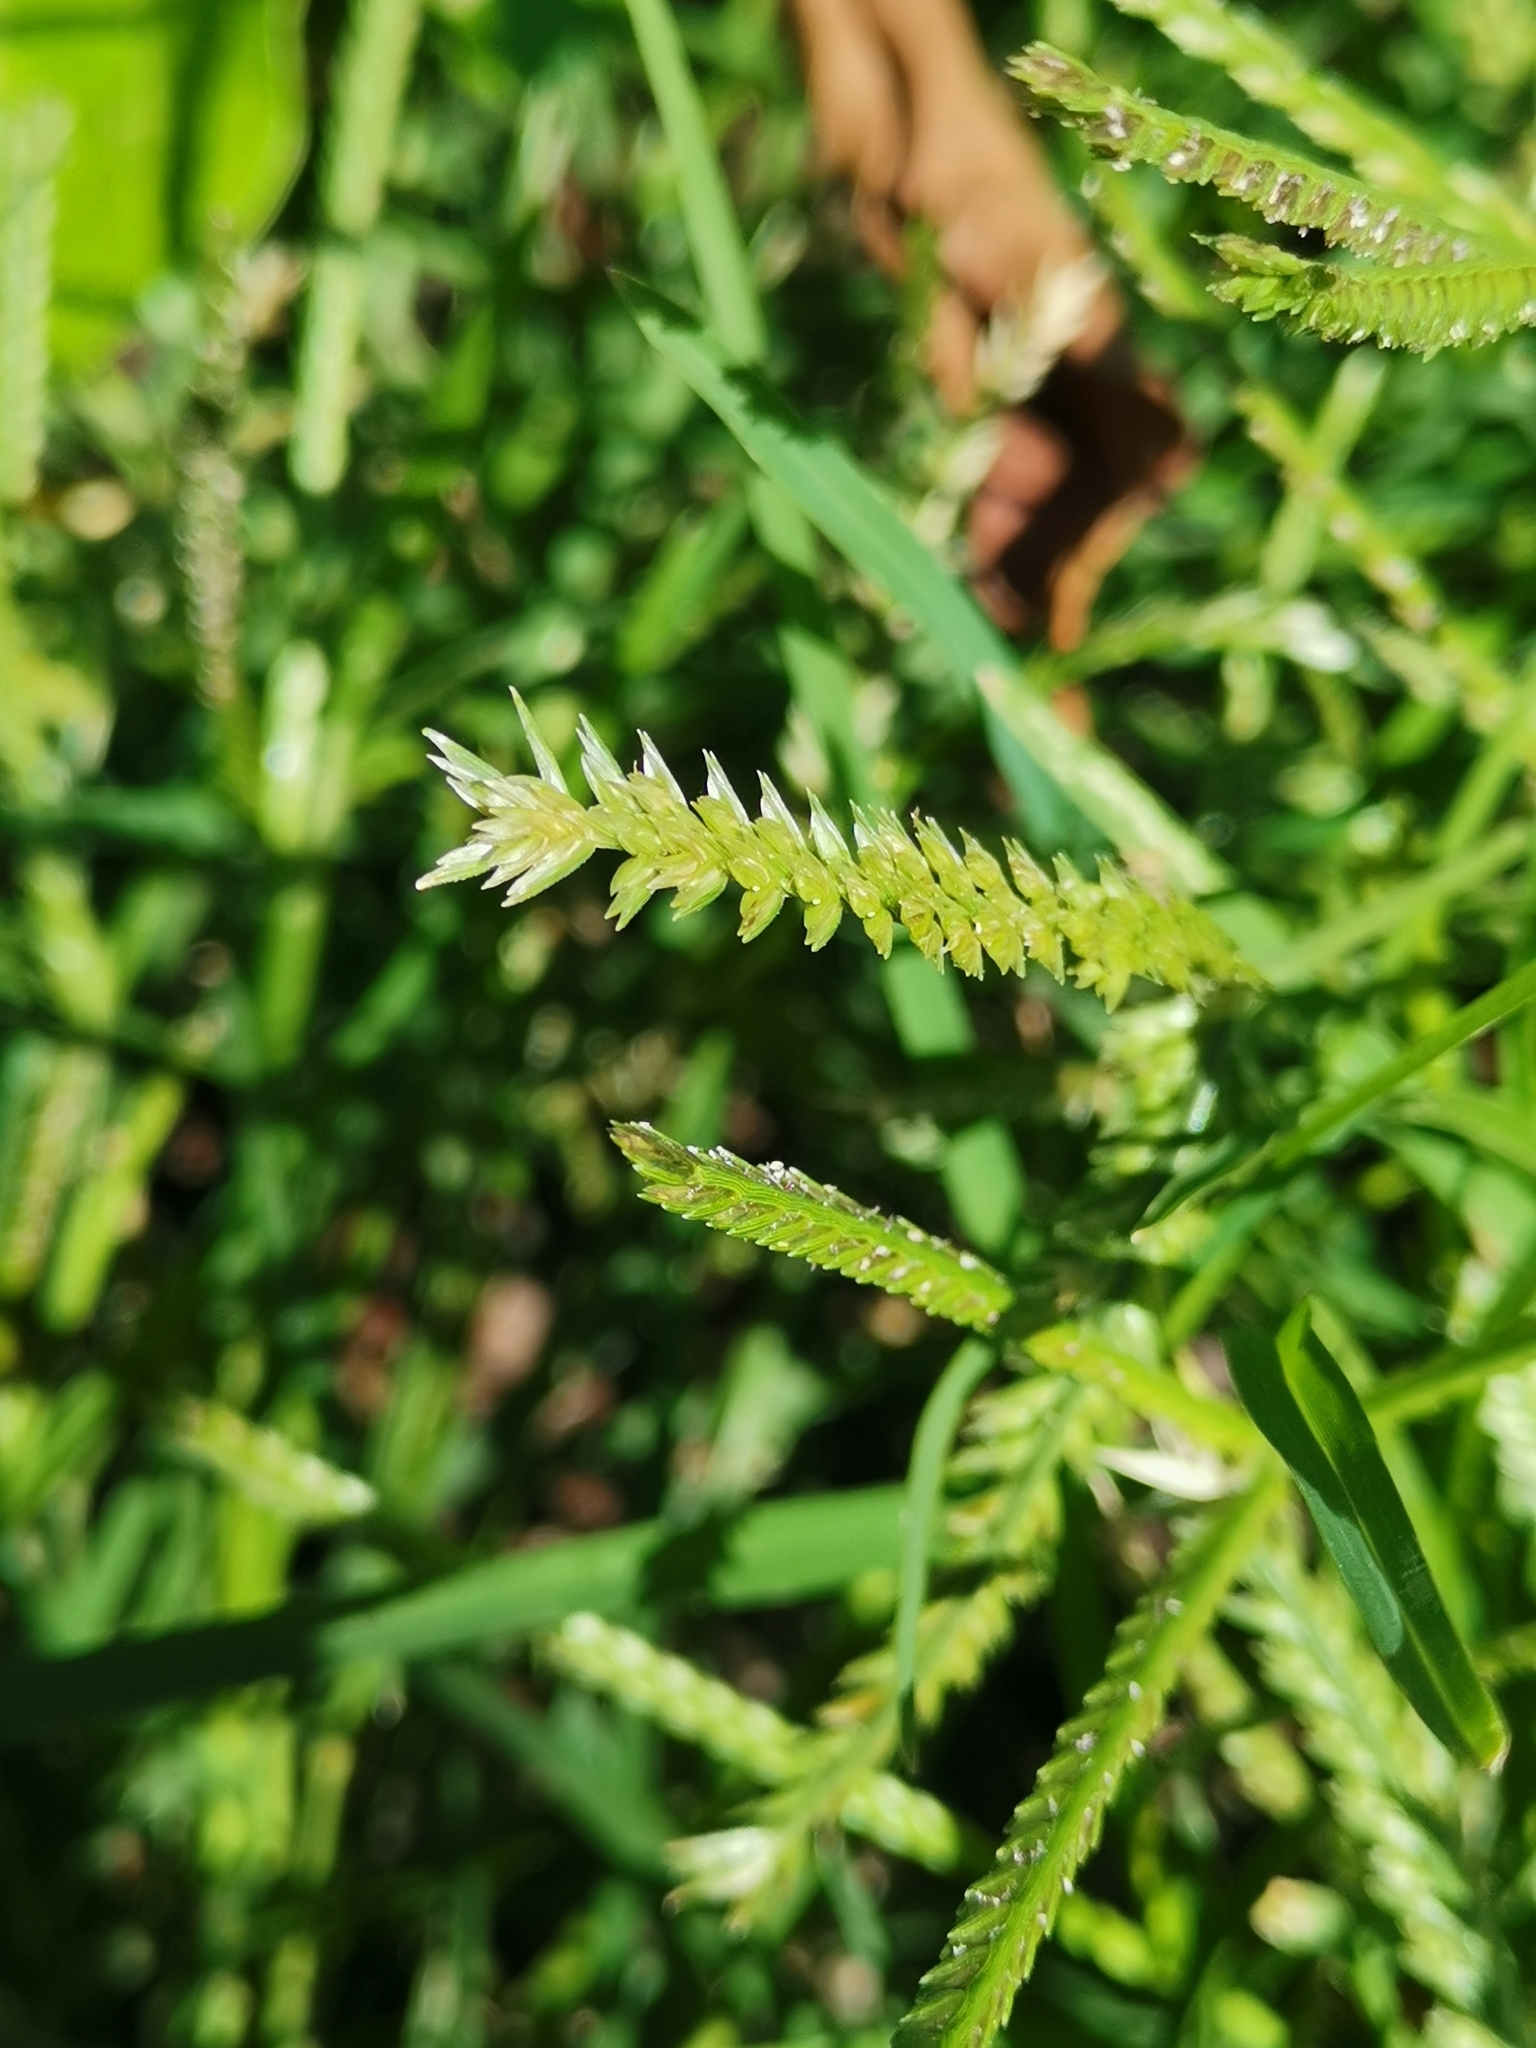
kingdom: Plantae
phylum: Tracheophyta
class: Liliopsida
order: Poales
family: Poaceae
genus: Eleusine
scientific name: Eleusine indica
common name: Yard-grass
